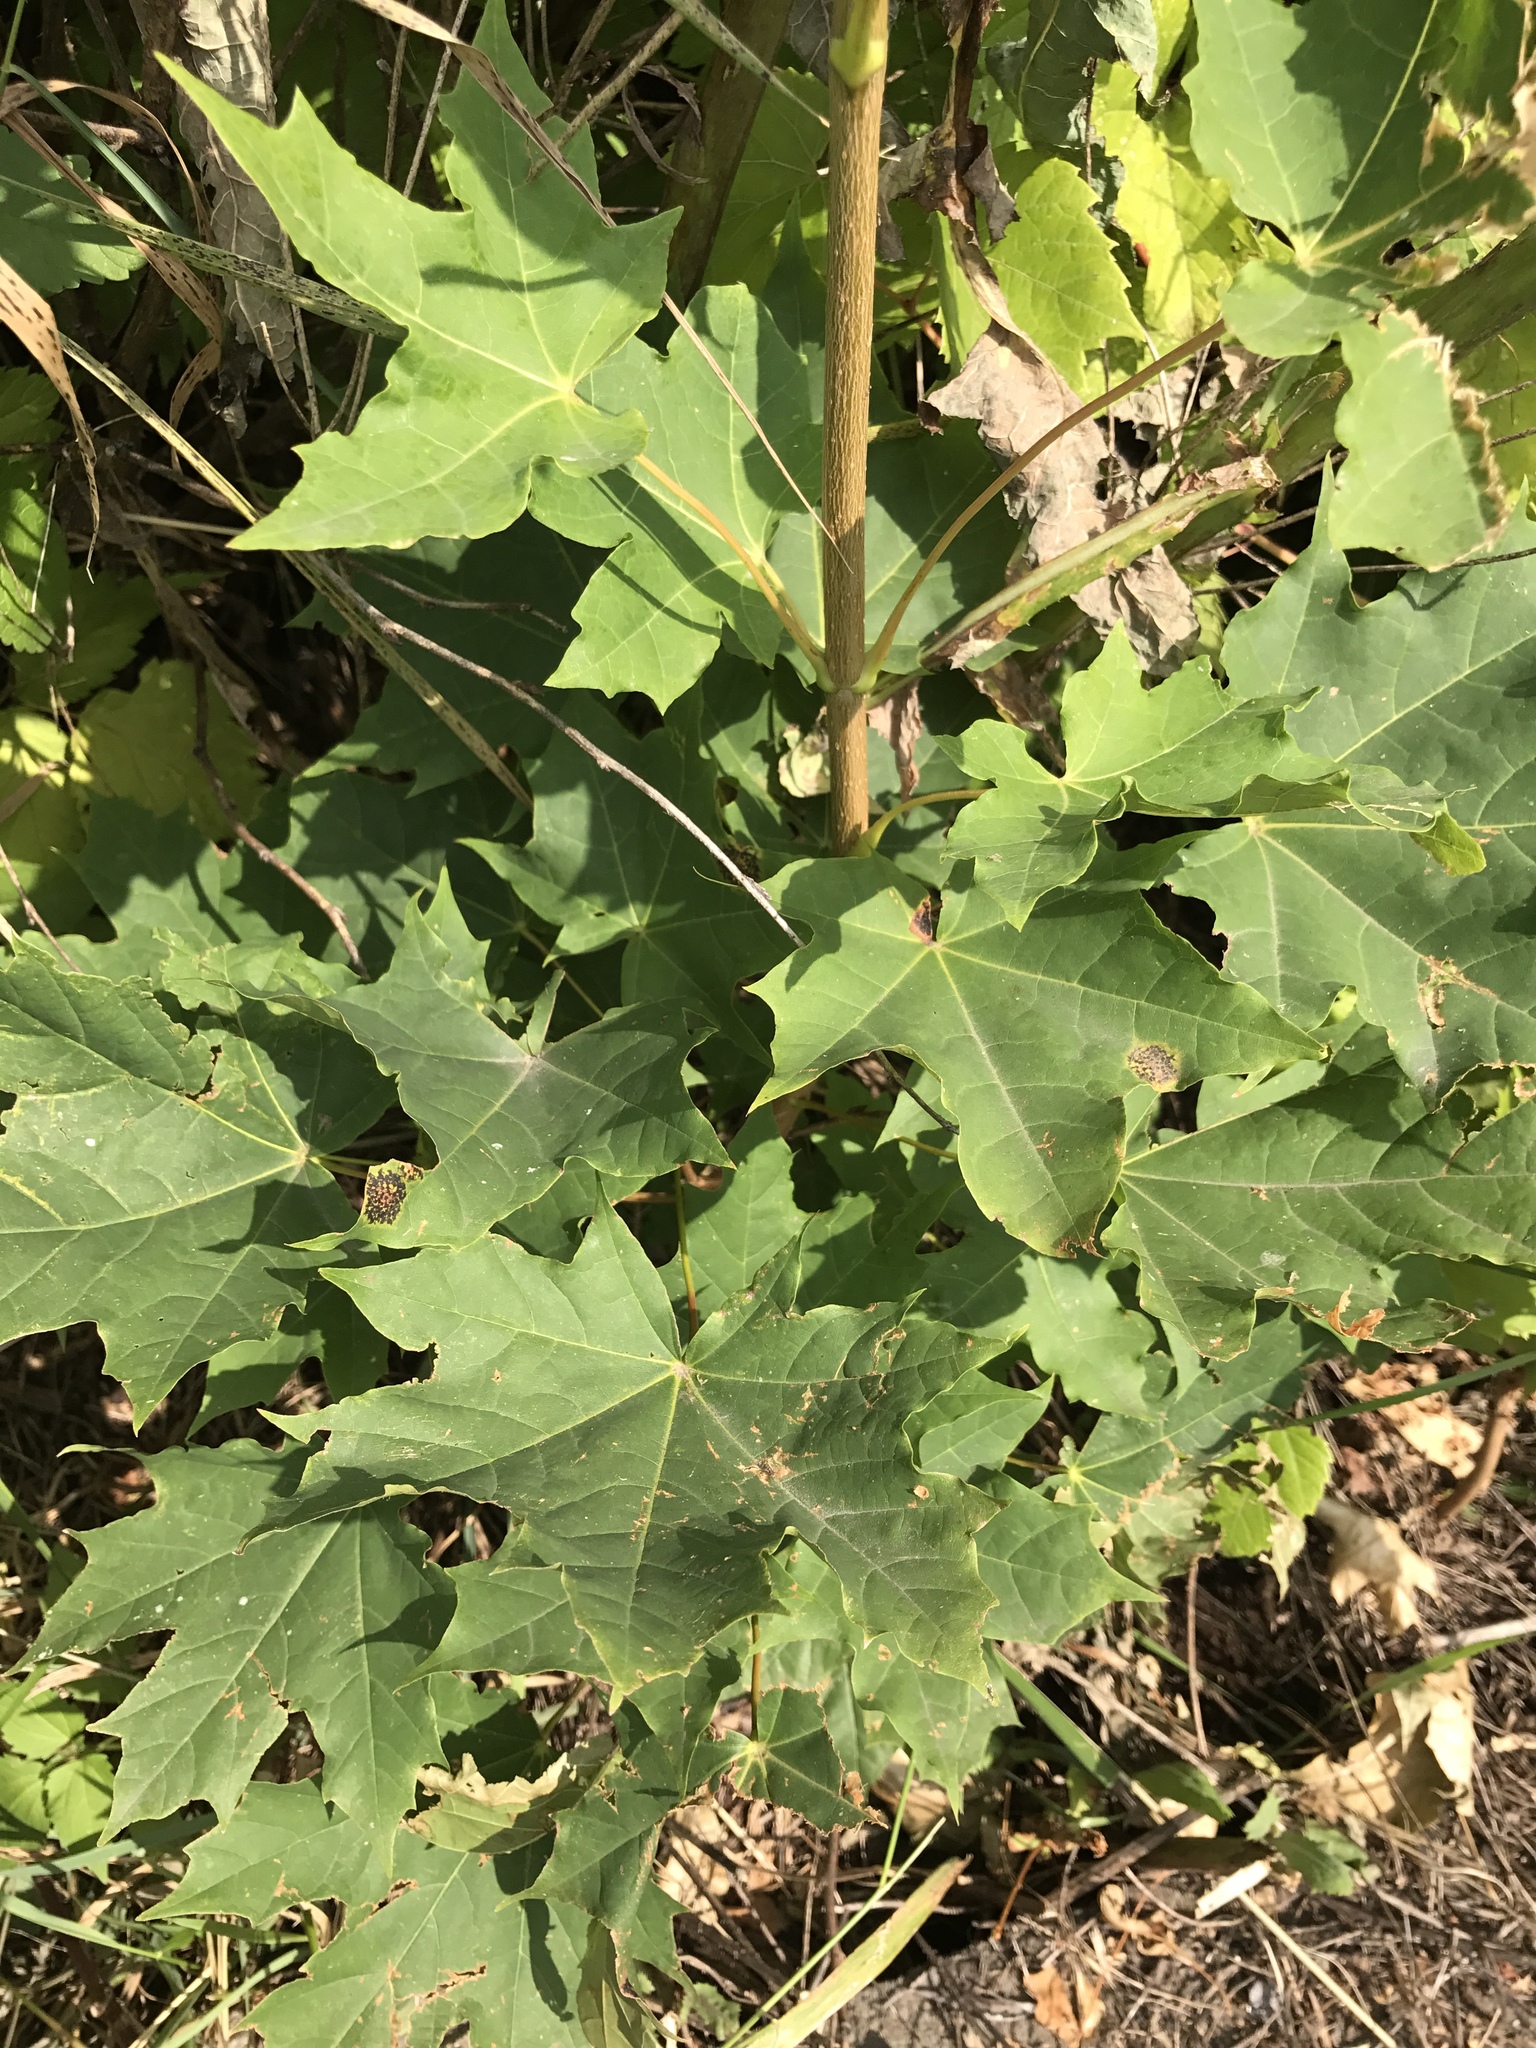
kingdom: Plantae
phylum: Tracheophyta
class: Magnoliopsida
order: Sapindales
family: Sapindaceae
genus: Acer
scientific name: Acer platanoides
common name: Norway maple
